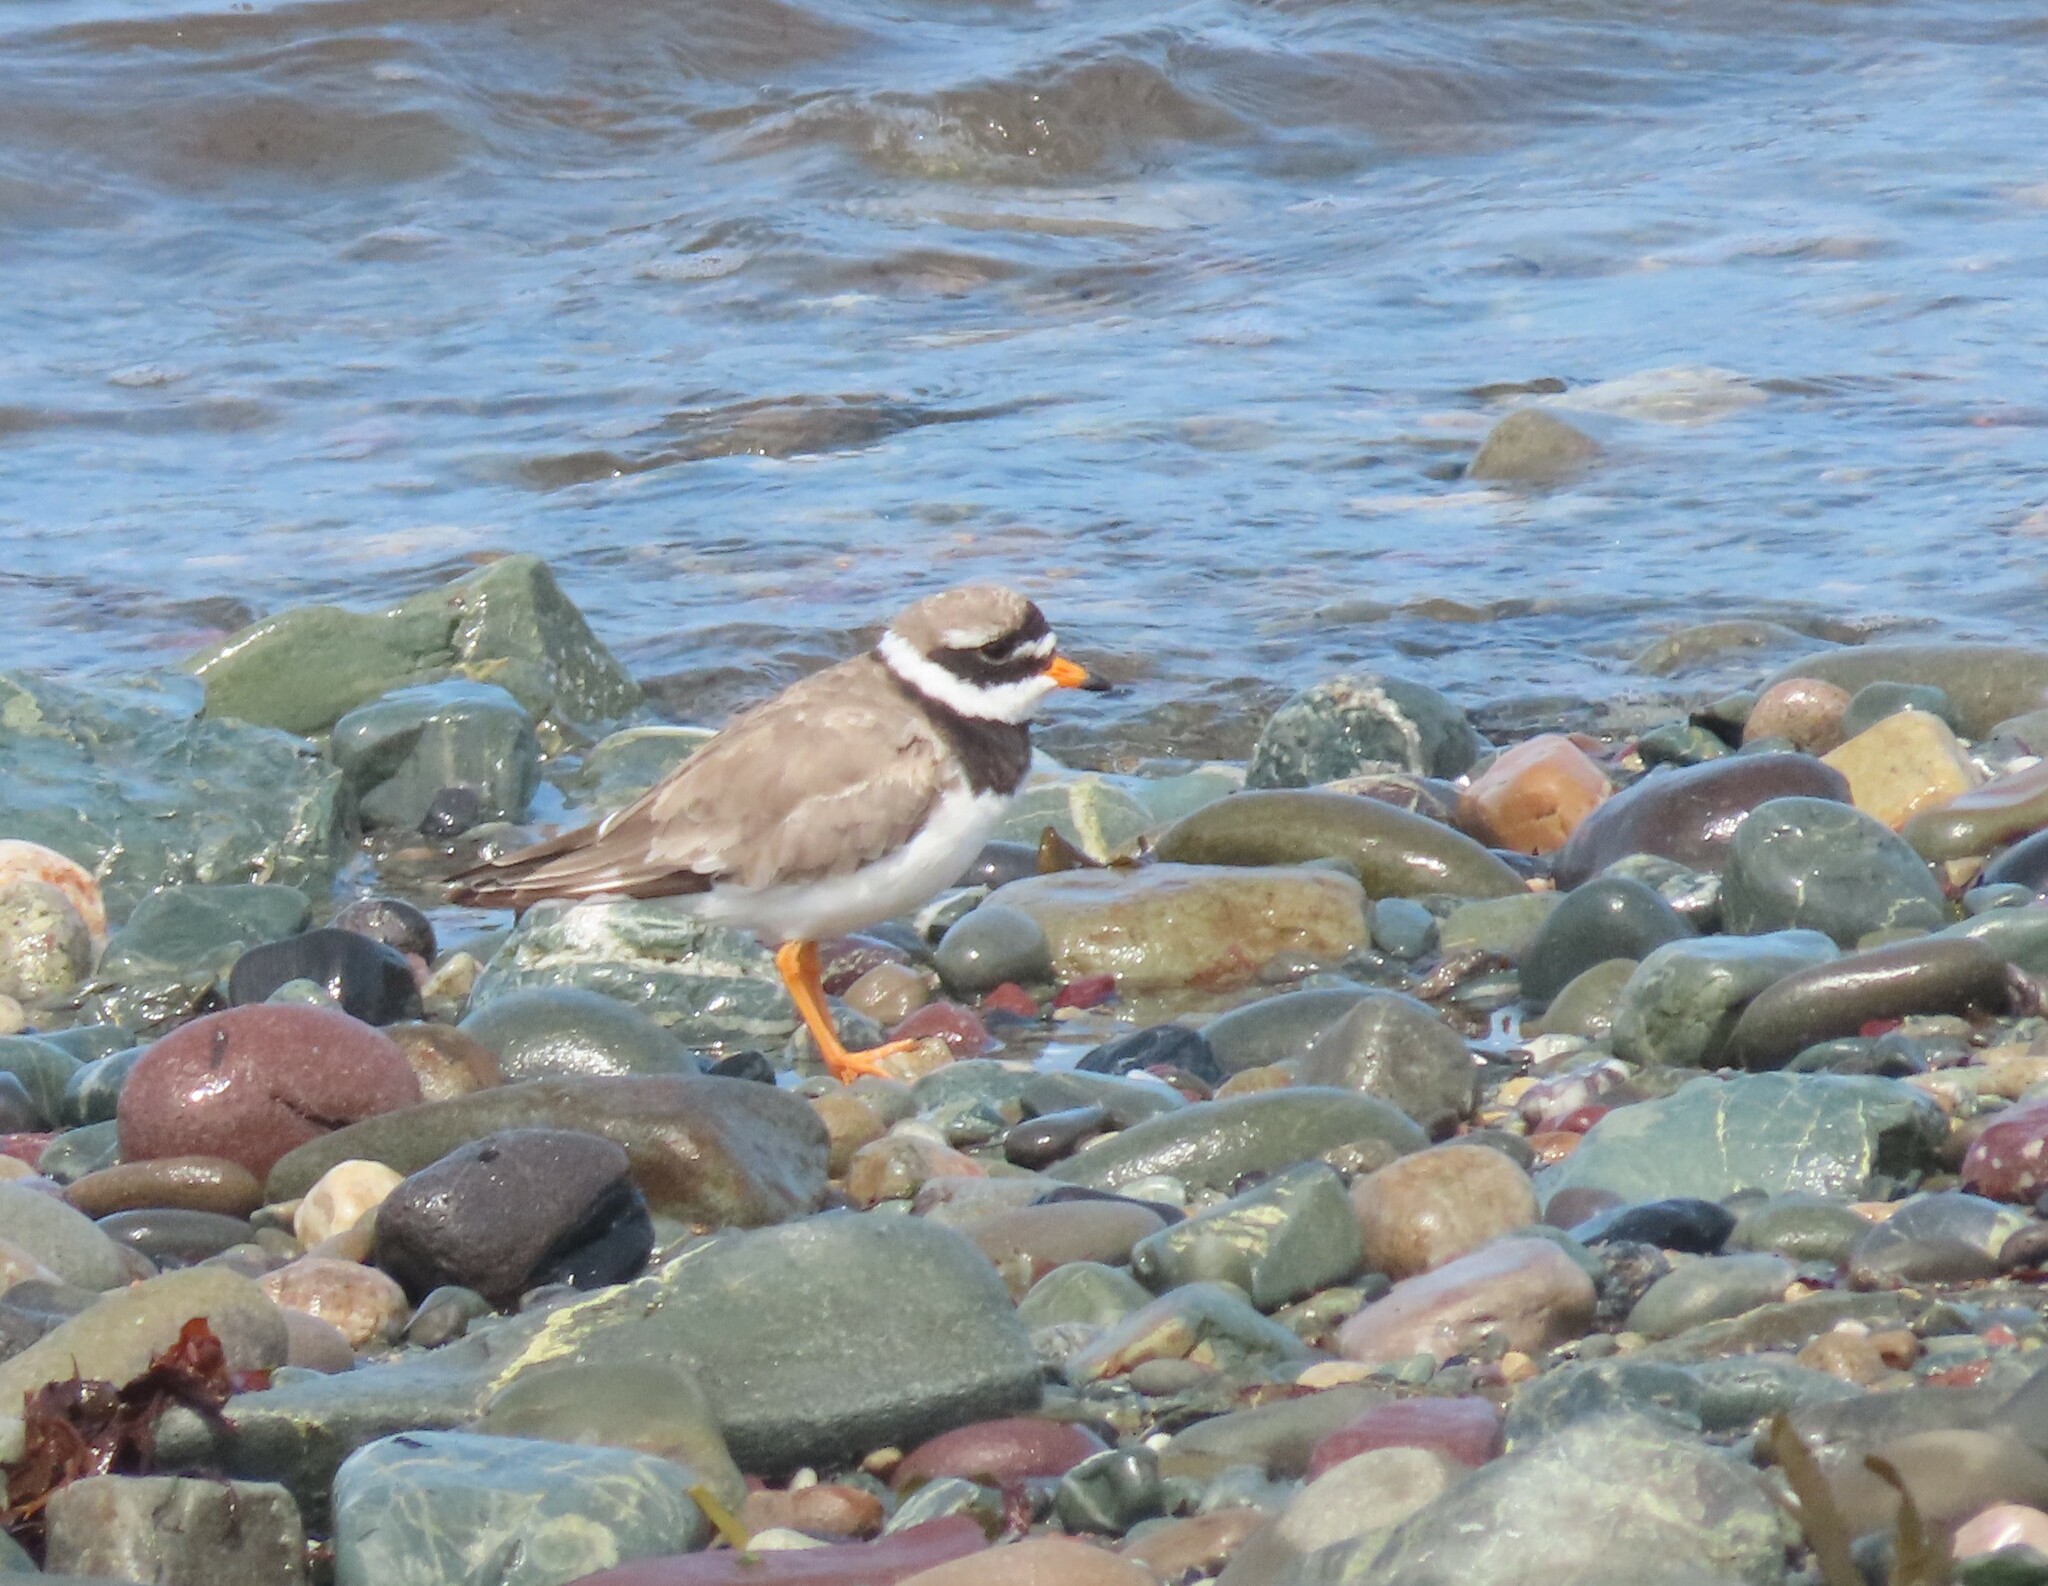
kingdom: Animalia
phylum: Chordata
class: Aves
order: Charadriiformes
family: Charadriidae
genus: Charadrius
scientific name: Charadrius hiaticula
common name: Common ringed plover
